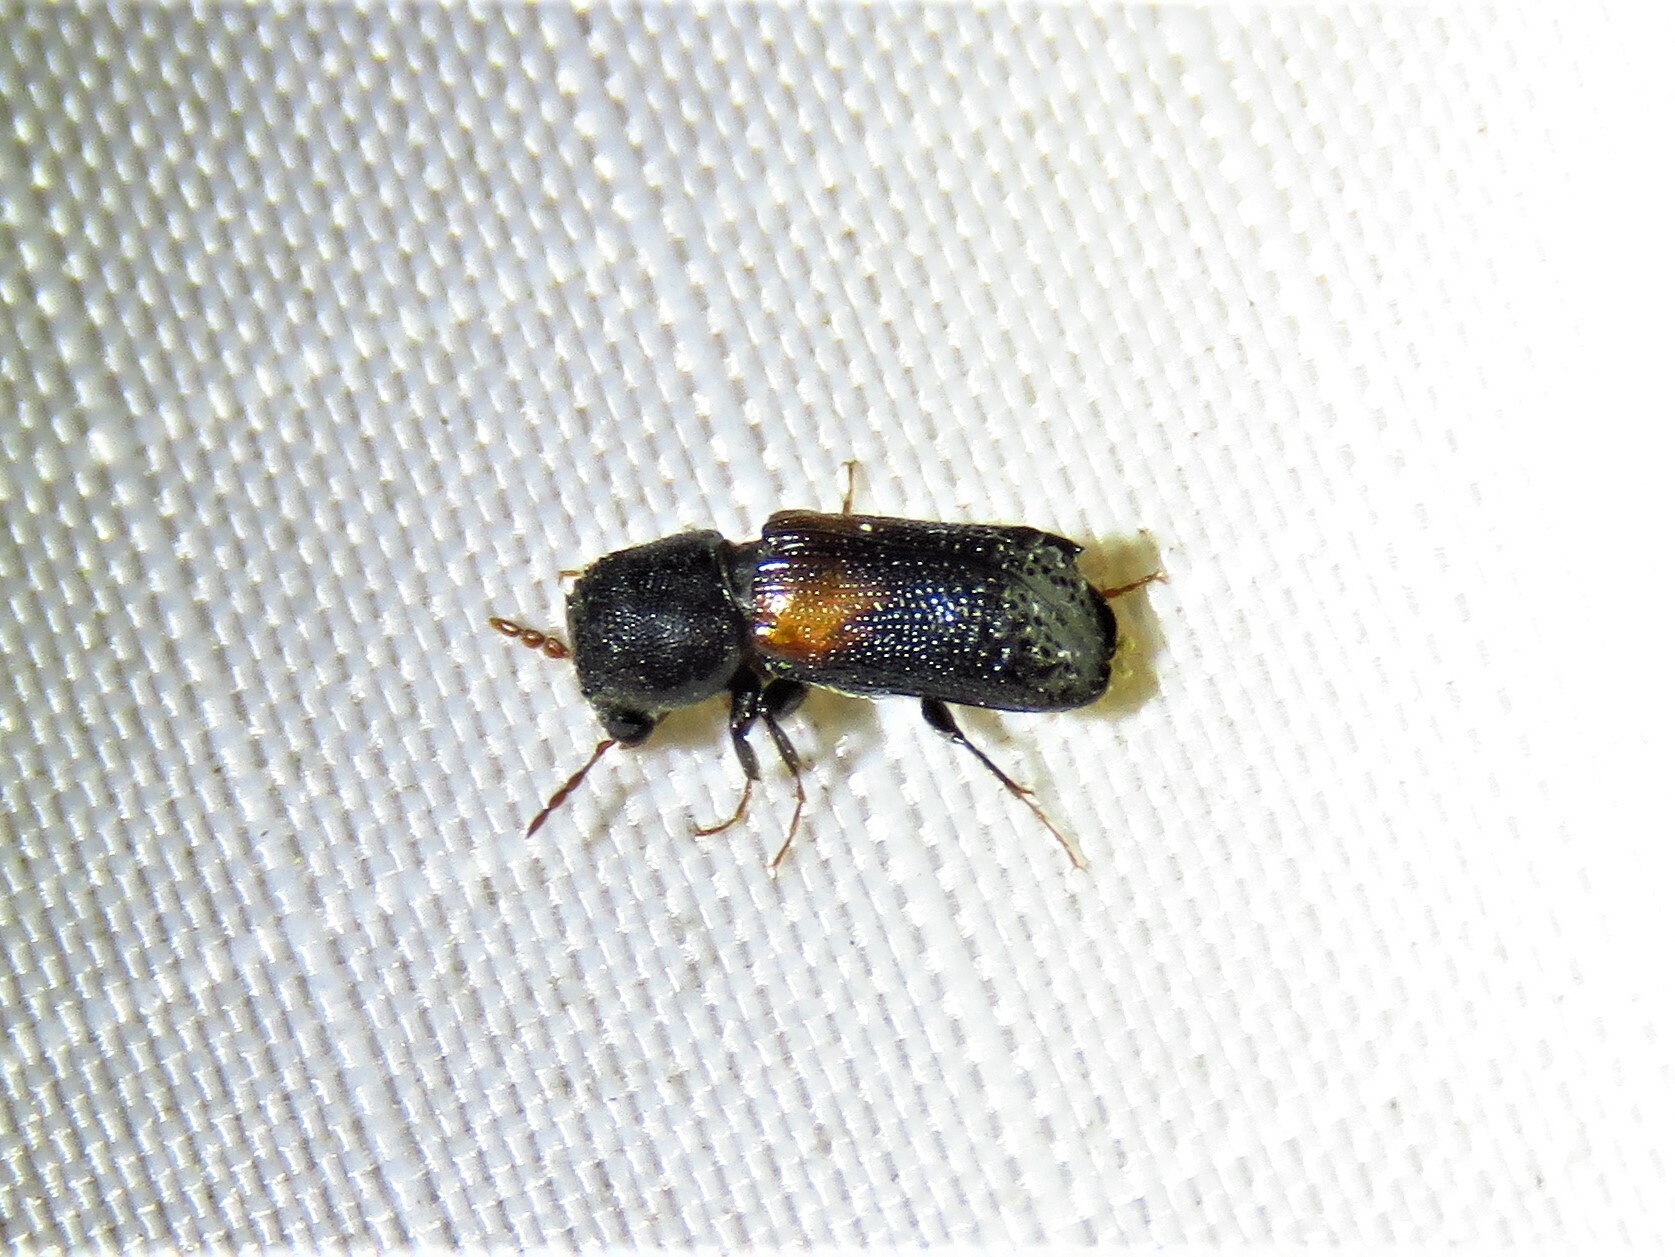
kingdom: Animalia
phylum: Arthropoda
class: Insecta
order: Coleoptera
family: Bostrichidae
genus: Xylobiops
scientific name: Xylobiops basilaris
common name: Red-shouldered bostrichid
